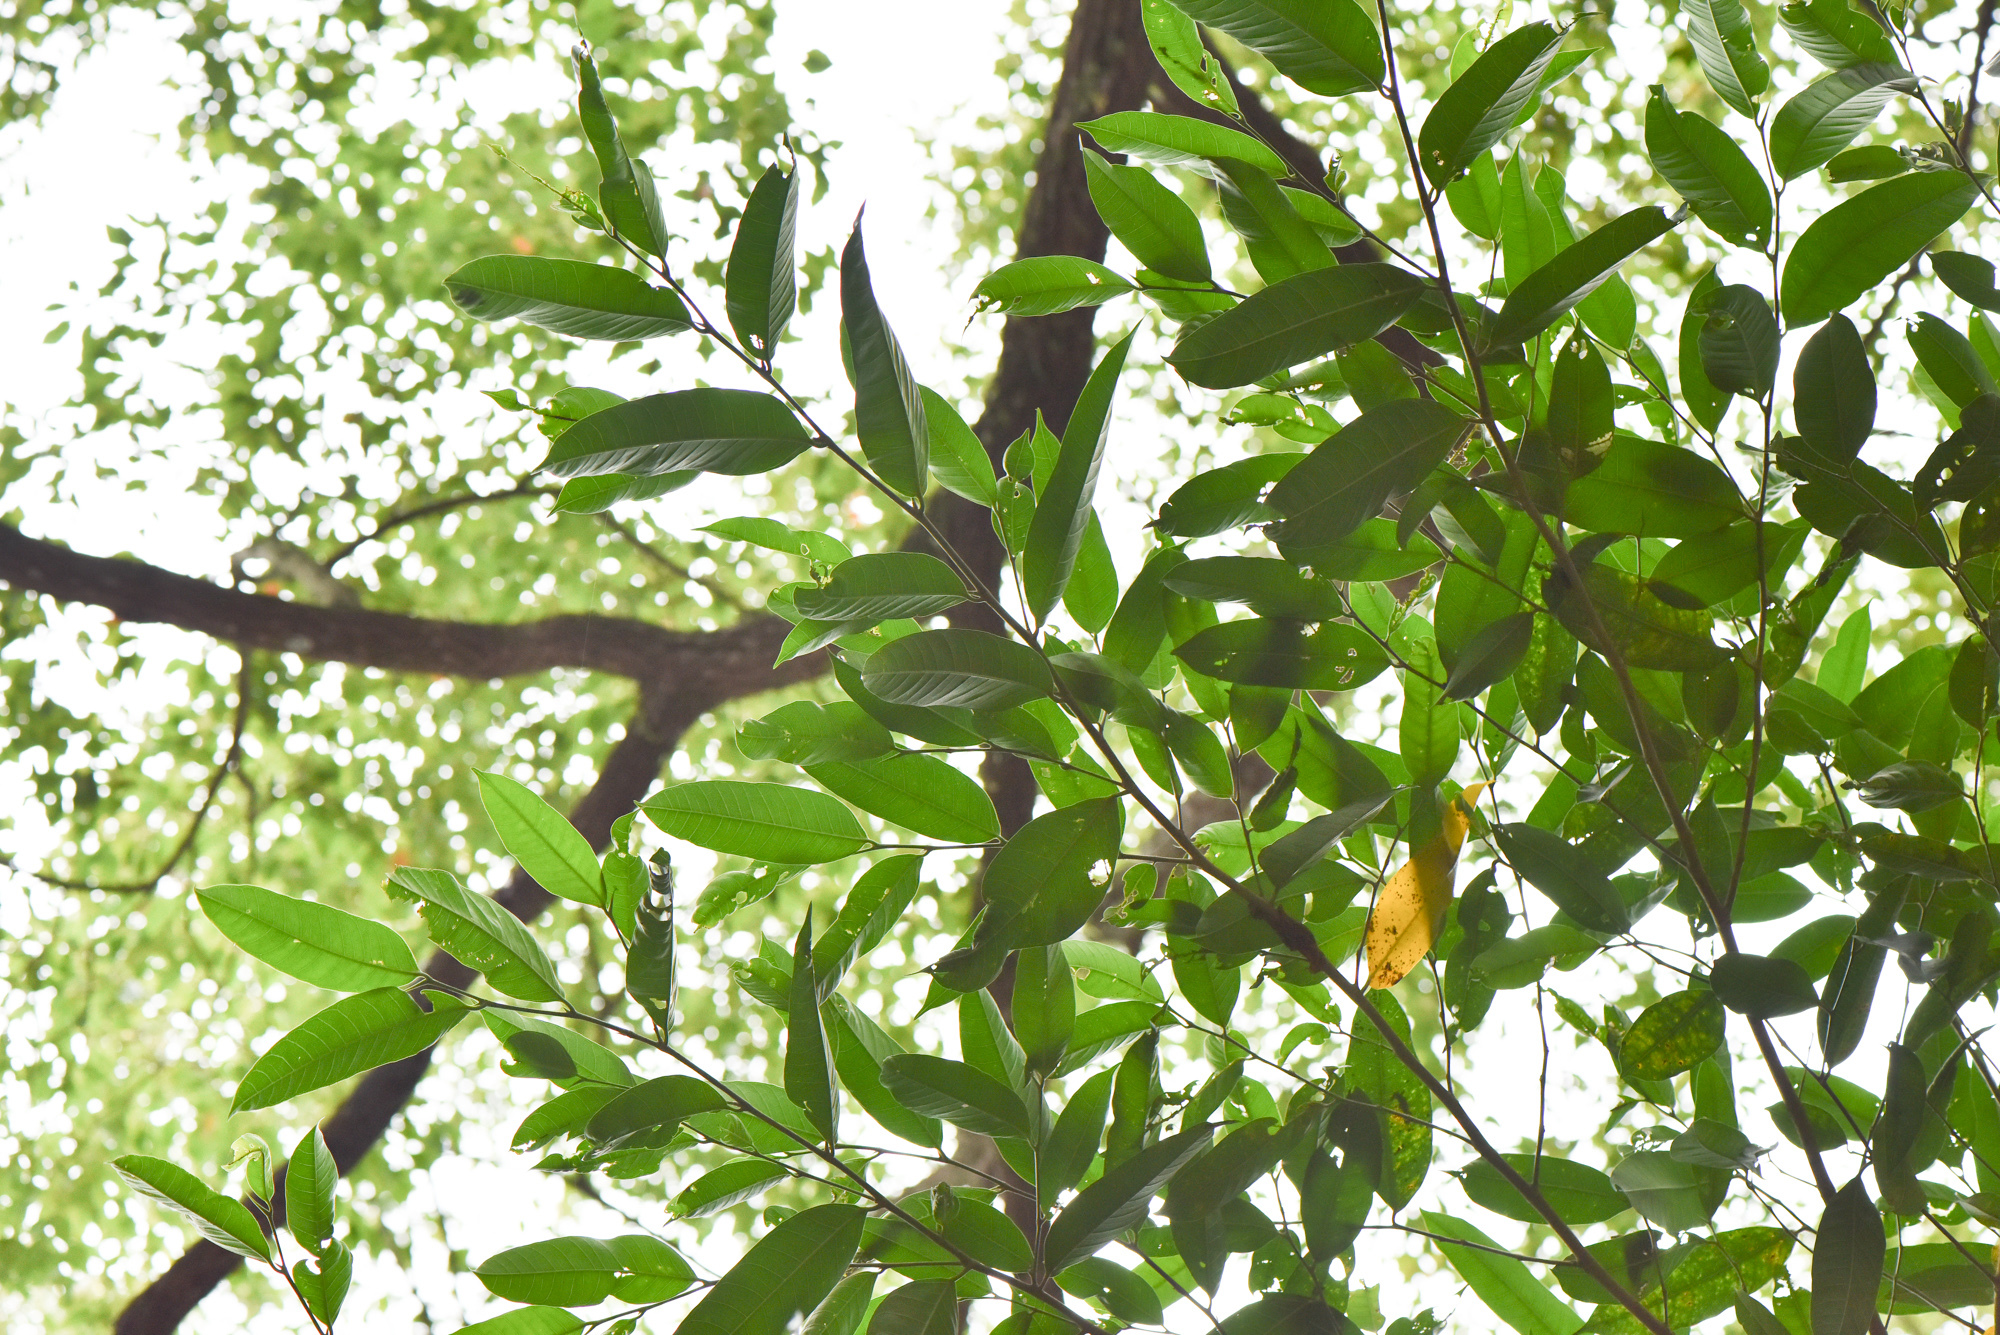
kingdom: Plantae
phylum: Tracheophyta
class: Magnoliopsida
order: Rosales
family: Moraceae
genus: Ficus
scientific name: Ficus virgata
